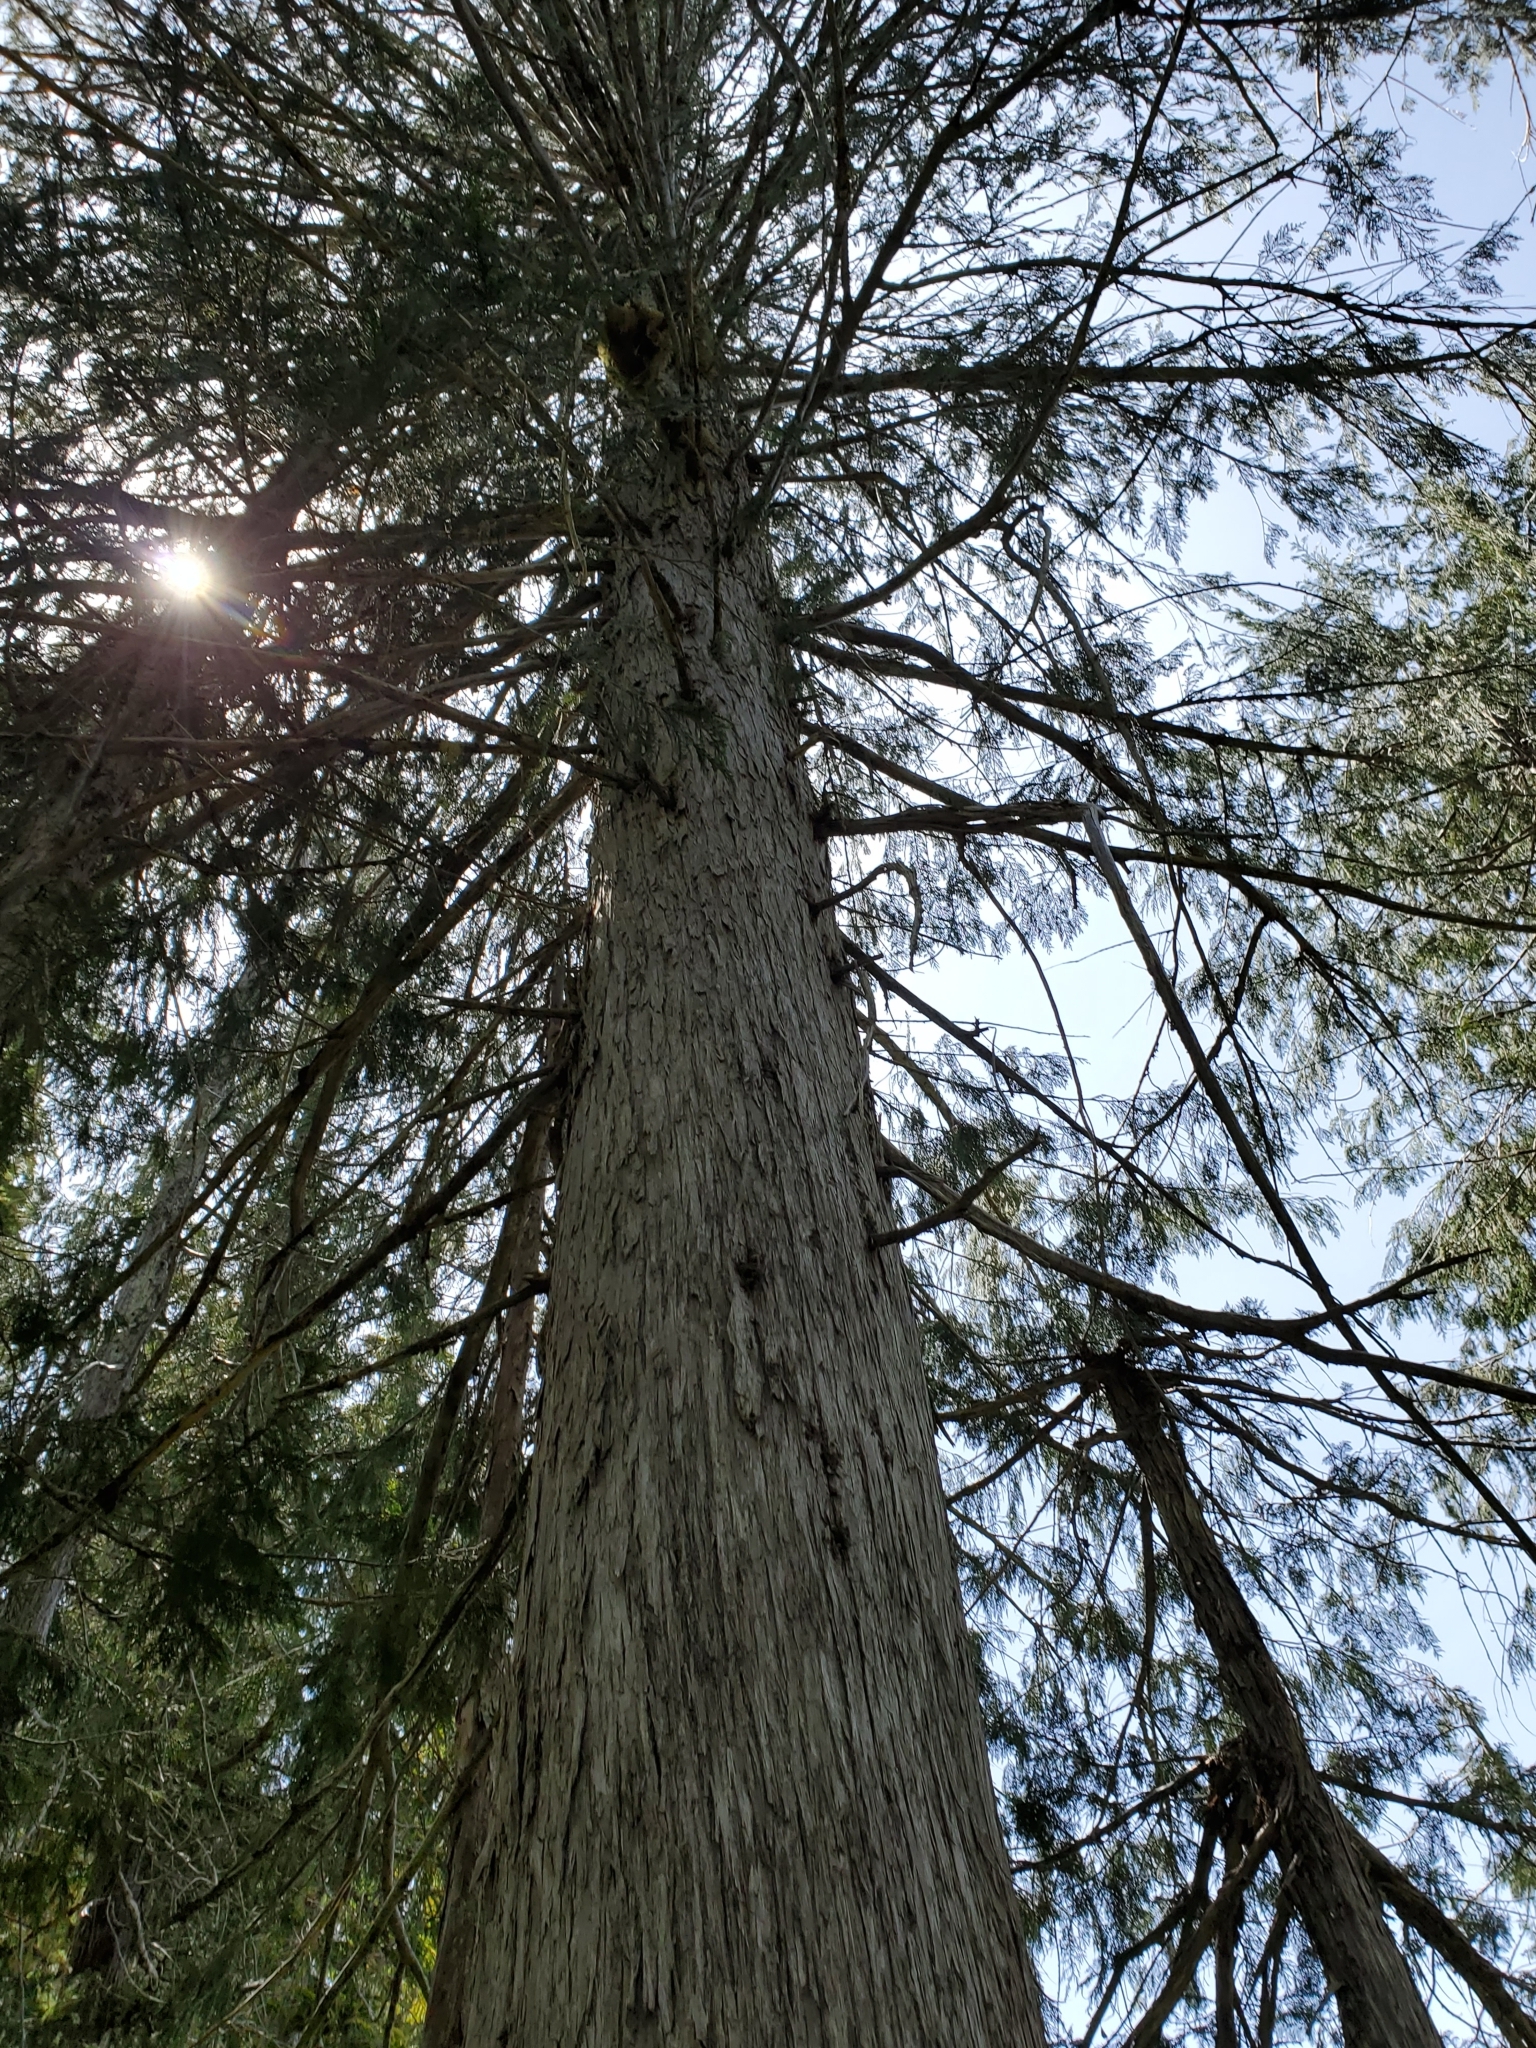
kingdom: Plantae
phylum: Tracheophyta
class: Pinopsida
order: Pinales
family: Cupressaceae
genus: Xanthocyparis
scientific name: Xanthocyparis nootkatensis
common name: Nootka cypress
